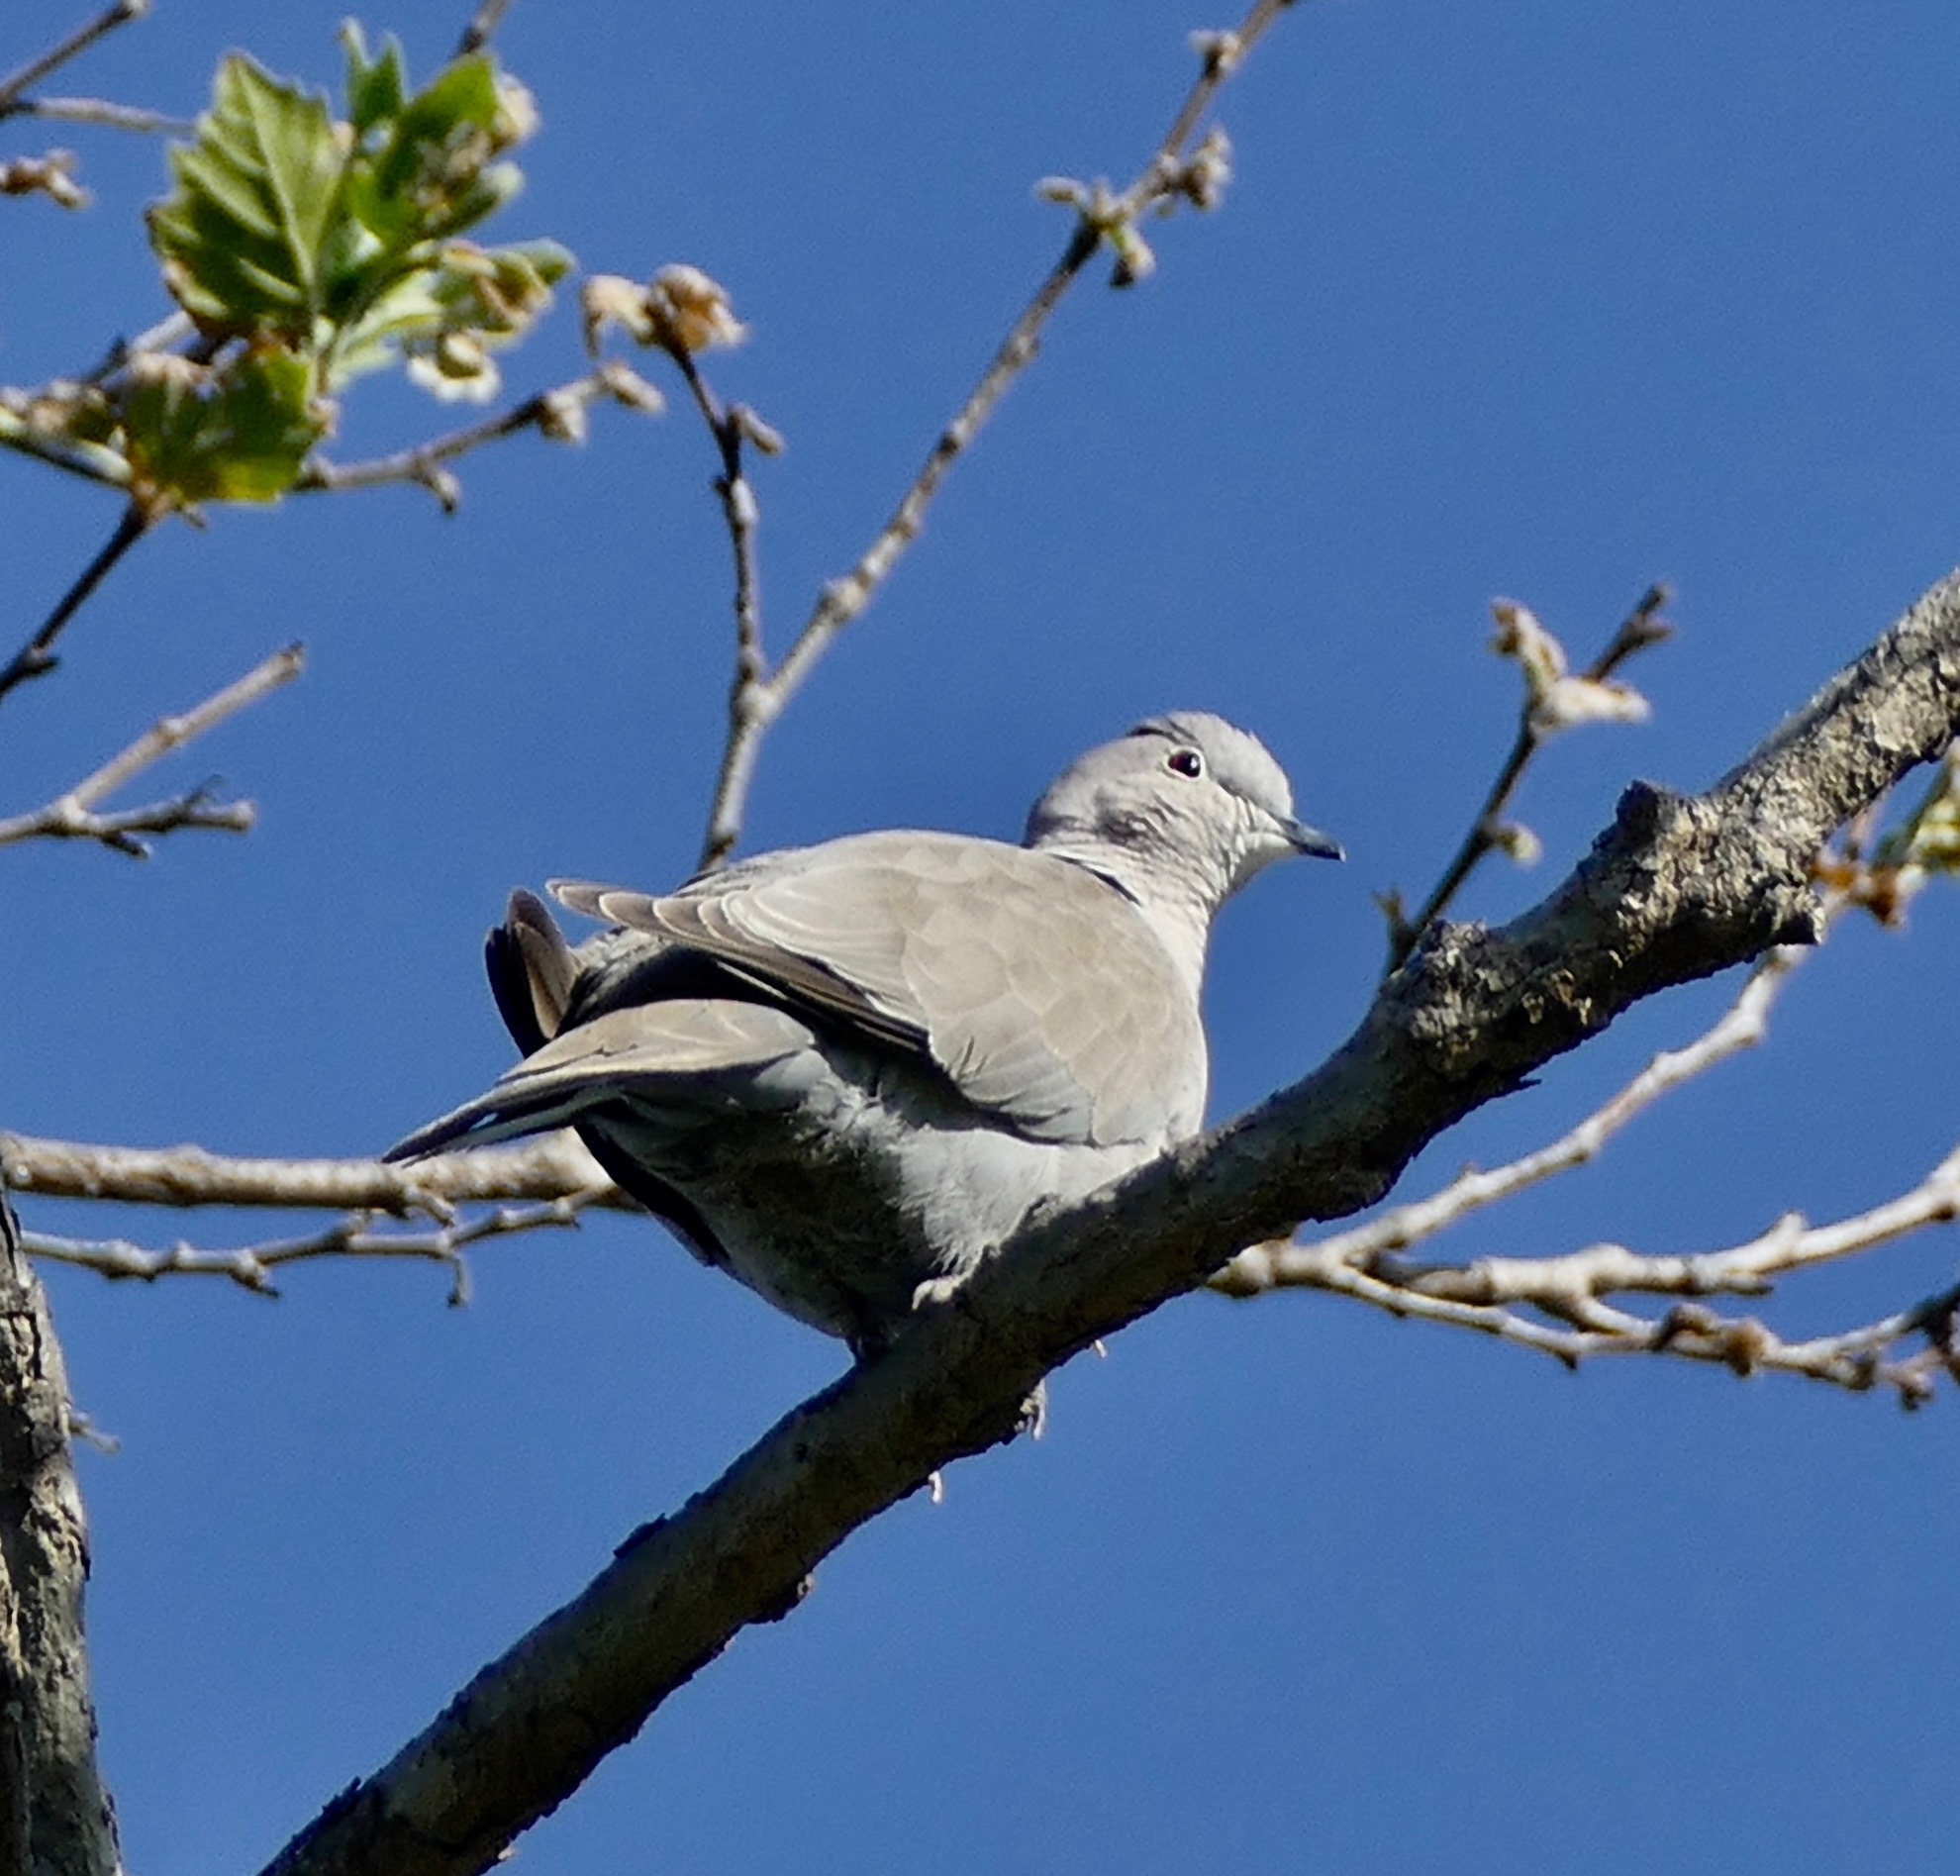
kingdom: Animalia
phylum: Chordata
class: Aves
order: Columbiformes
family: Columbidae
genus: Streptopelia
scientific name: Streptopelia decaocto
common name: Eurasian collared dove
